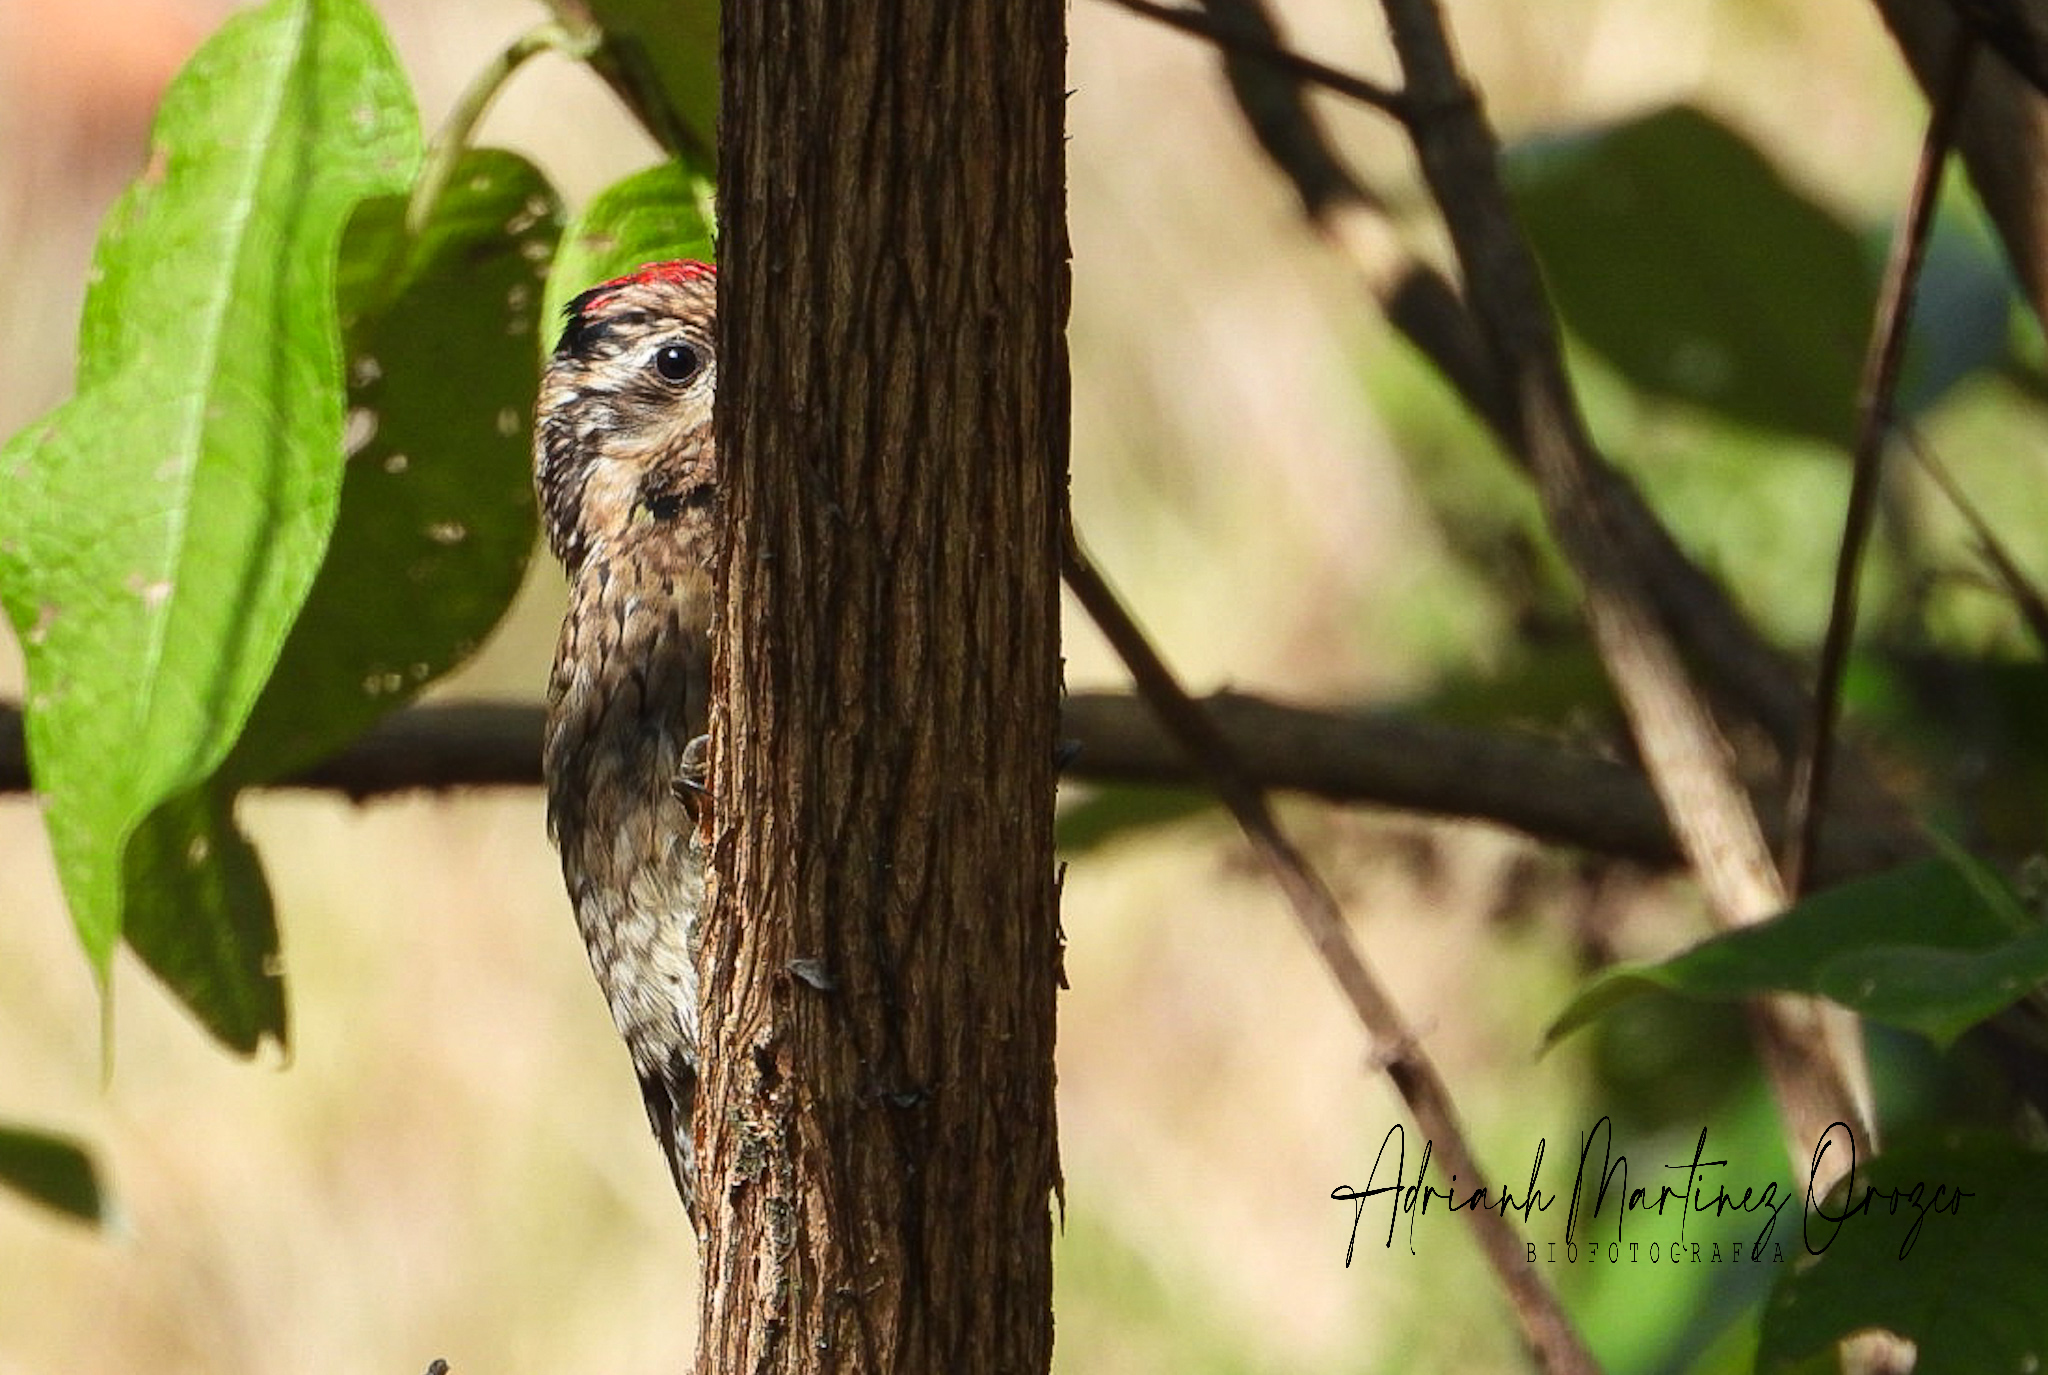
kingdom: Animalia
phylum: Chordata
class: Aves
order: Piciformes
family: Picidae
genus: Sphyrapicus
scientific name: Sphyrapicus varius
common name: Yellow-bellied sapsucker
